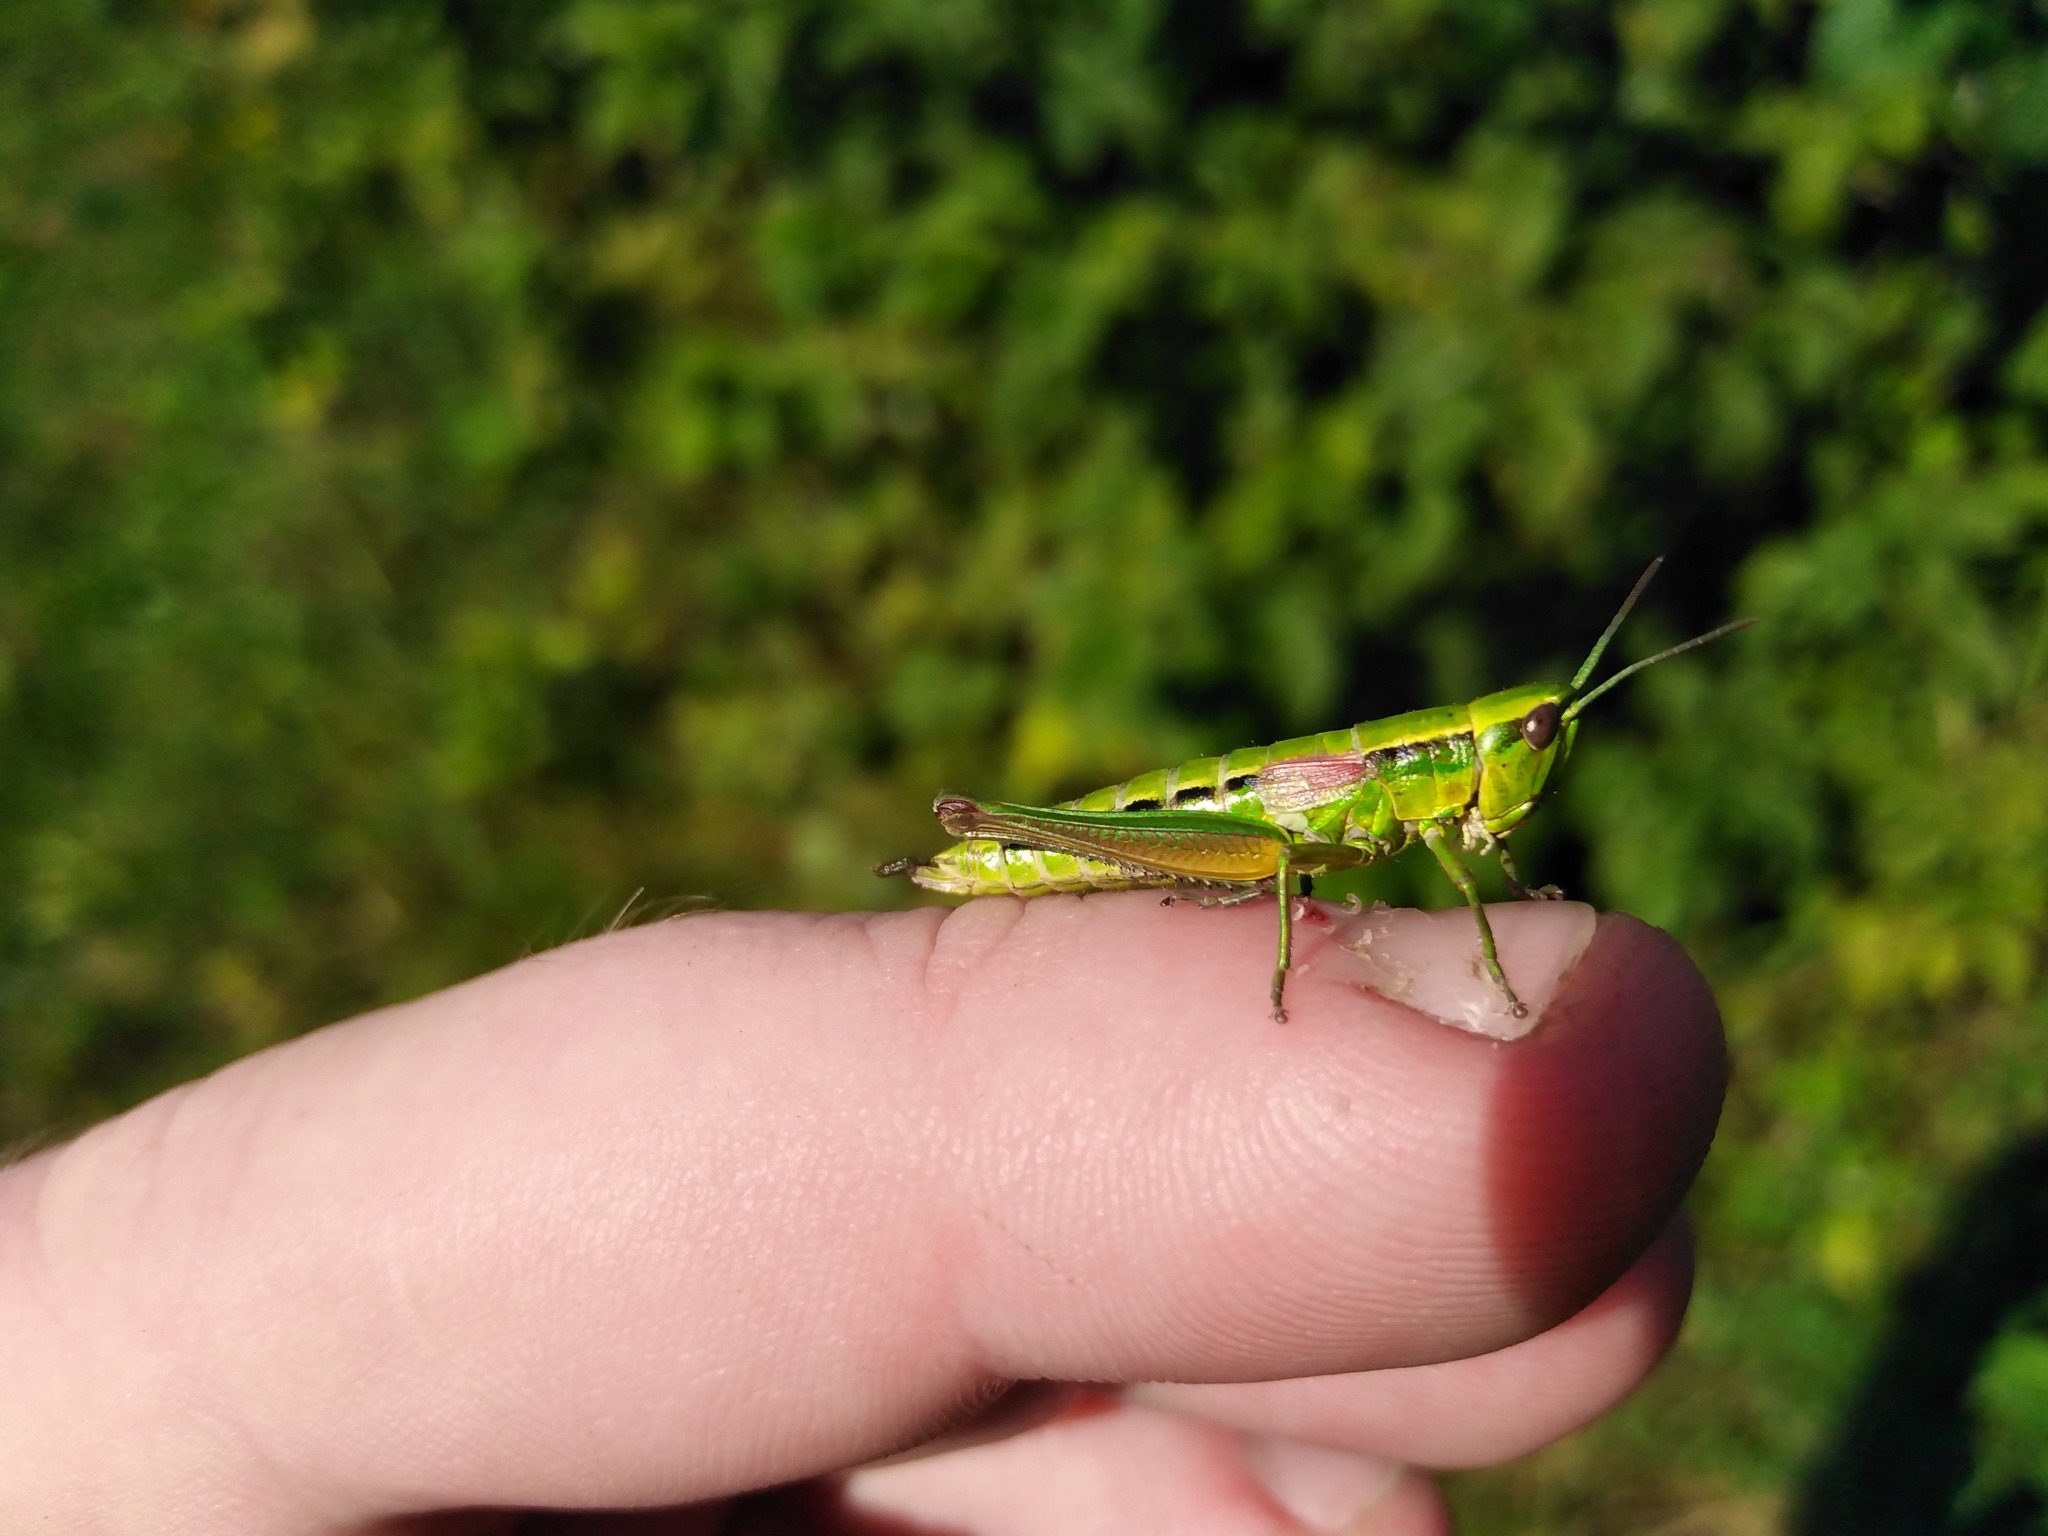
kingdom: Animalia
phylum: Arthropoda
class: Insecta
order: Orthoptera
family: Acrididae
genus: Euthystira
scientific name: Euthystira brachyptera
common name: Small gold grasshopper
